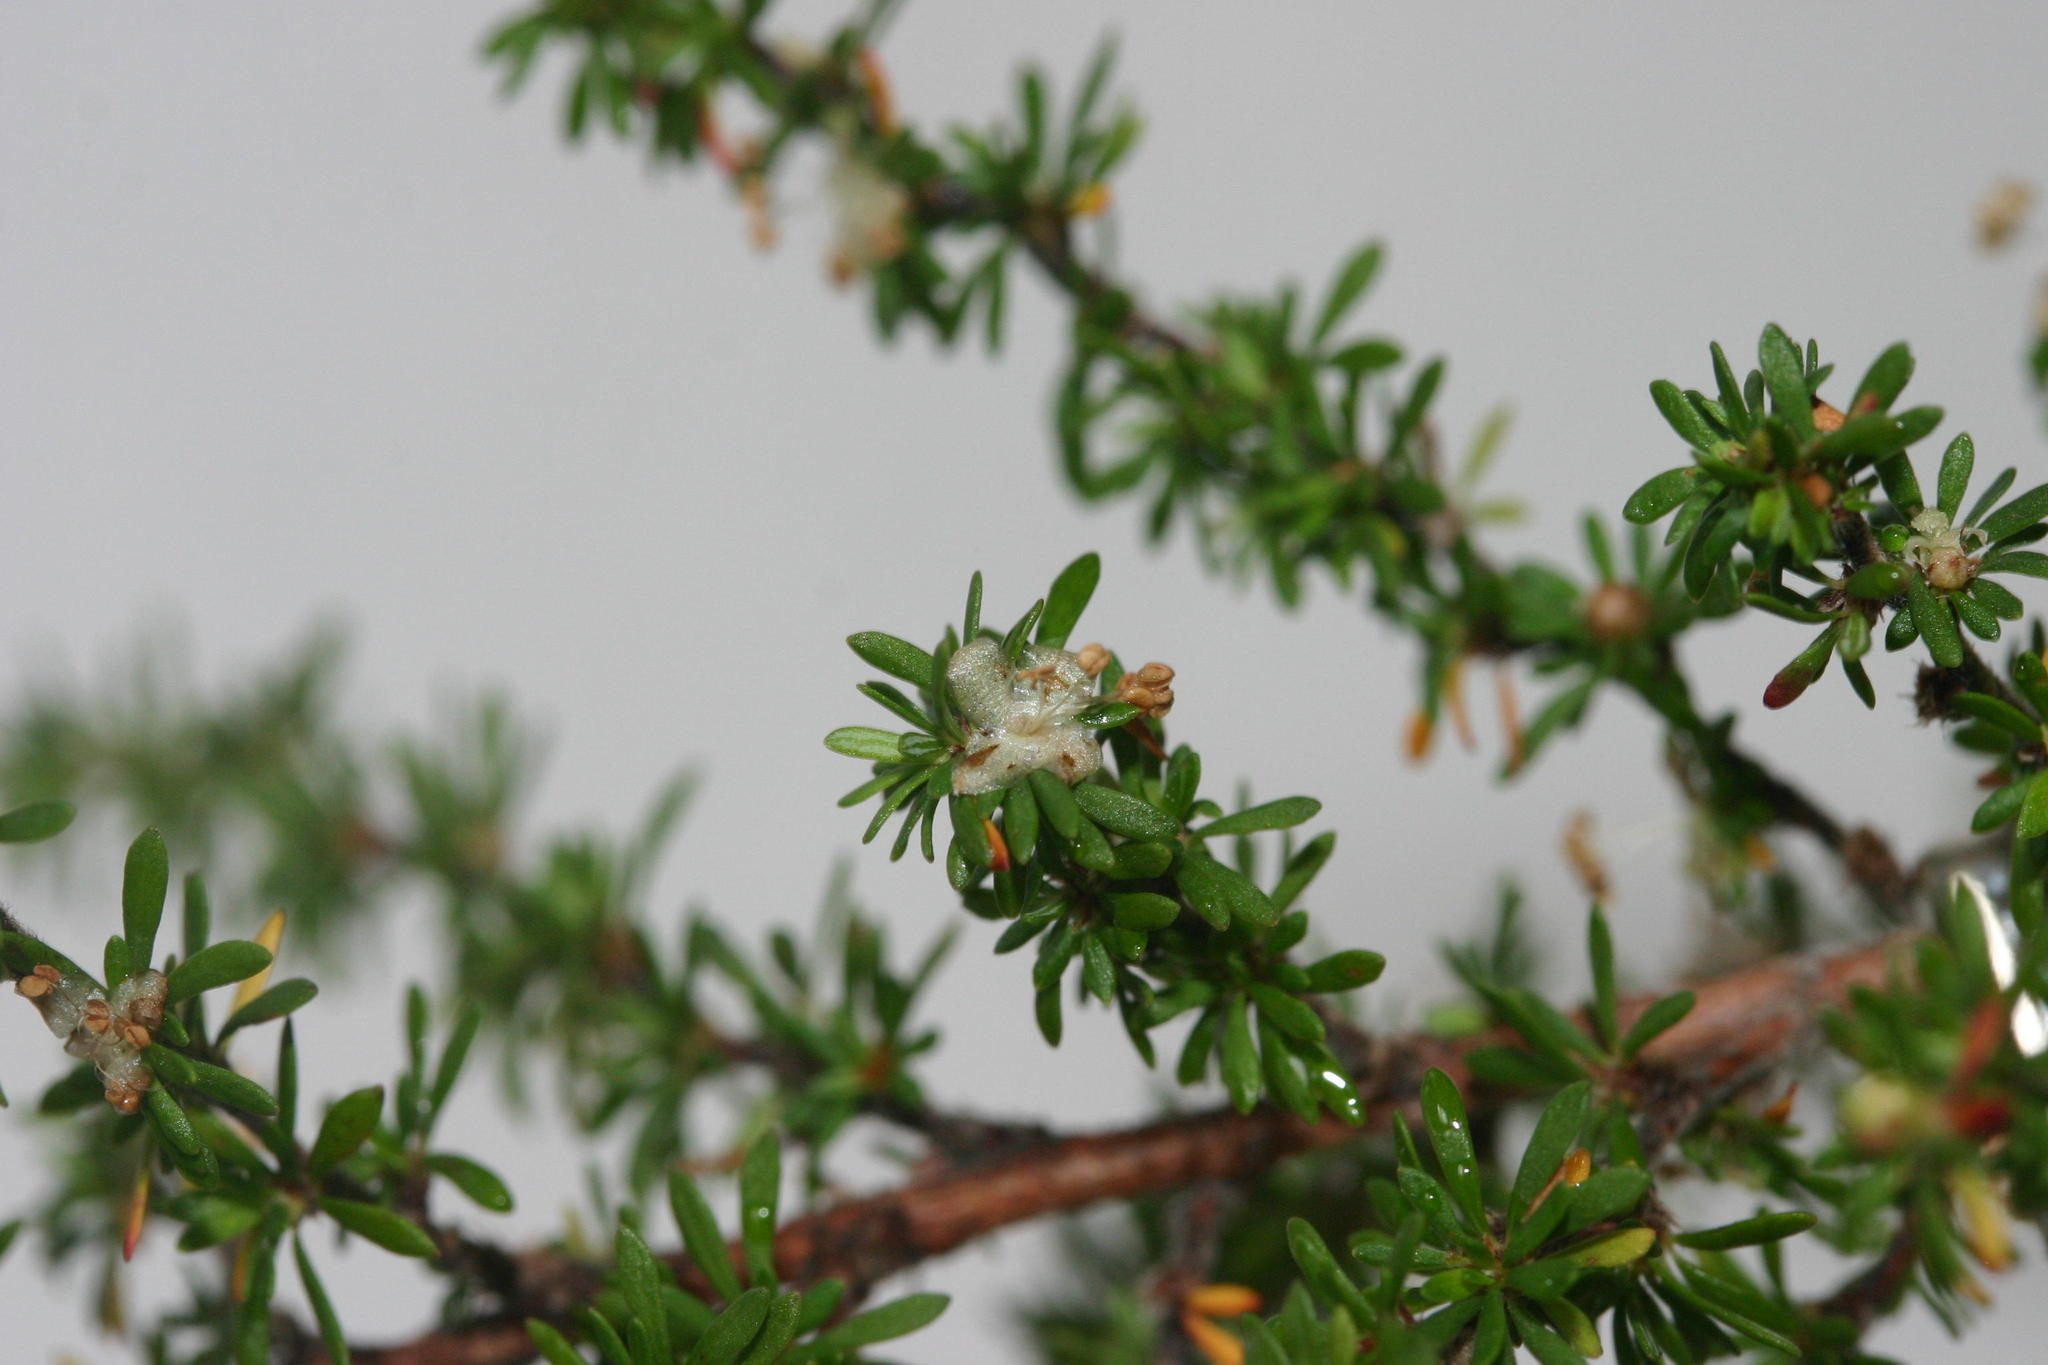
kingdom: Plantae
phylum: Tracheophyta
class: Magnoliopsida
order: Rosales
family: Rosaceae
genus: Cliffortia
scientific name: Cliffortia serpyllifolia
